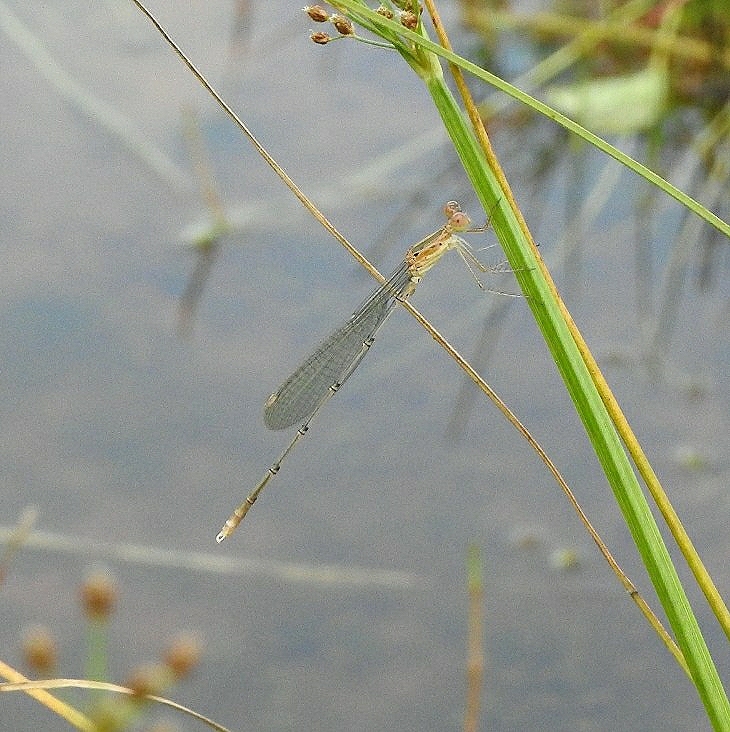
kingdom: Animalia
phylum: Arthropoda
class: Insecta
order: Odonata
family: Lestidae
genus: Lestes
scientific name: Lestes elatus
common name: Emerald spreadwing
